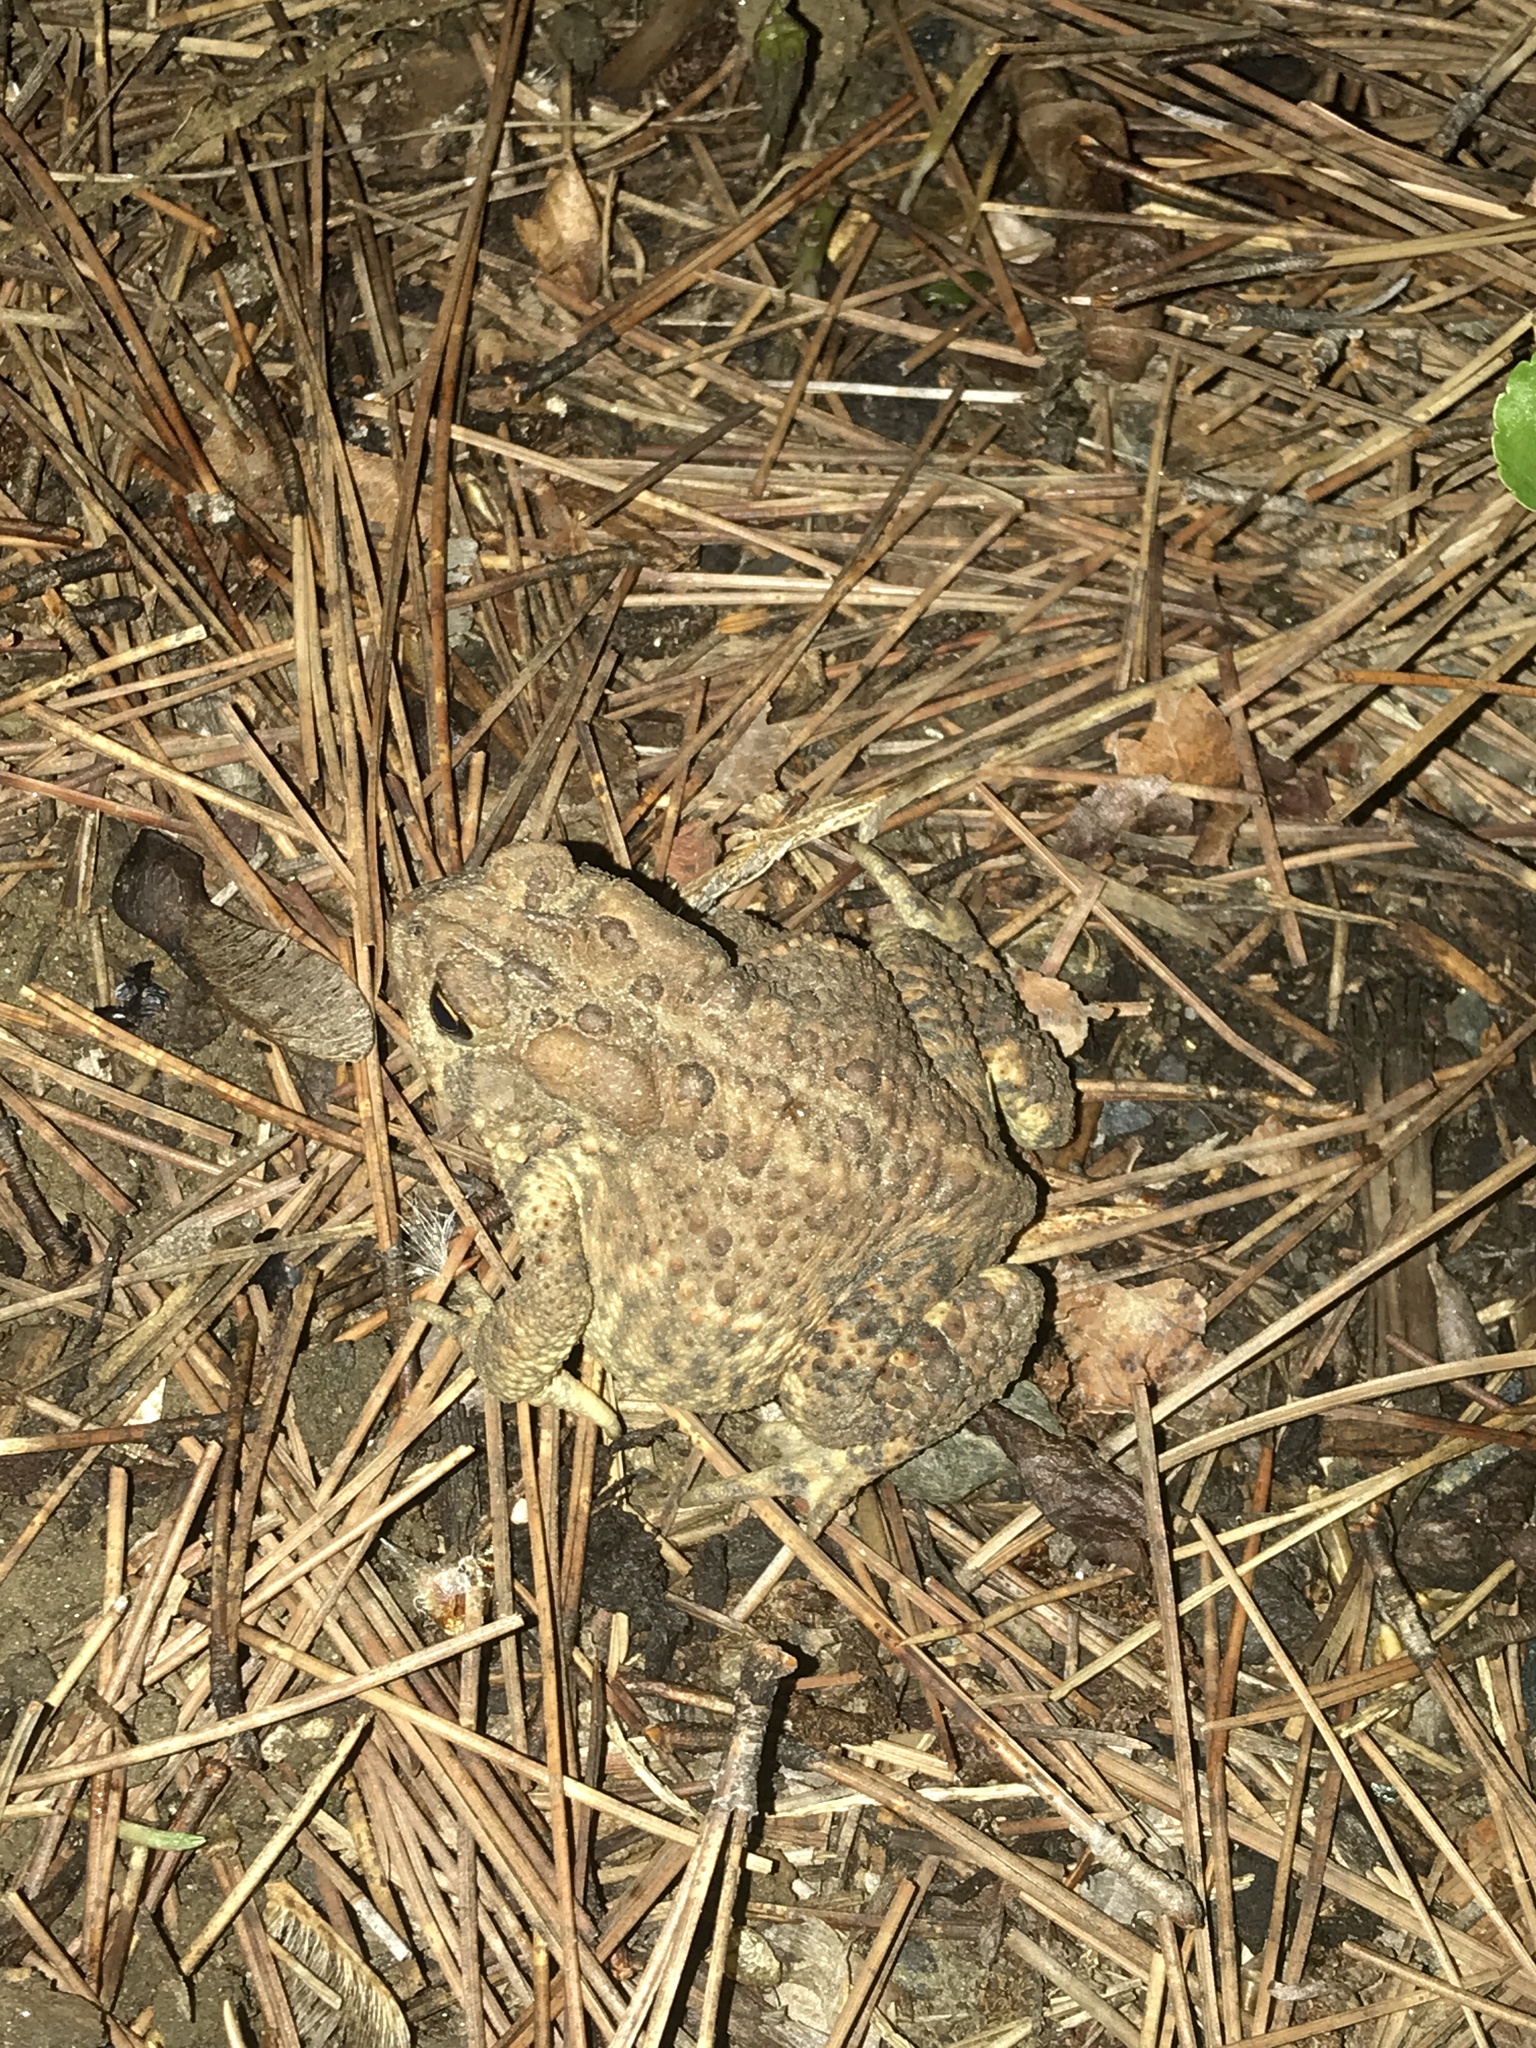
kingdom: Animalia
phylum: Chordata
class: Amphibia
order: Anura
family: Bufonidae
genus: Anaxyrus
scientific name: Anaxyrus americanus
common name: American toad
